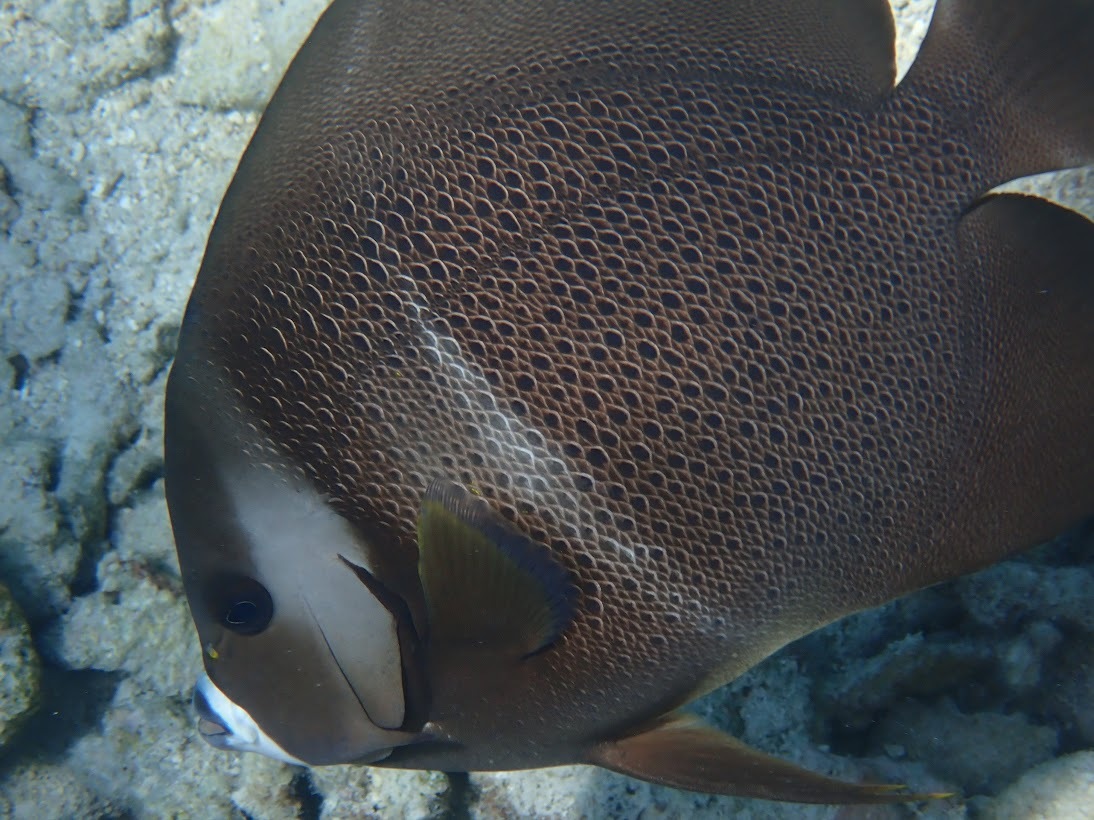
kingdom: Animalia
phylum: Chordata
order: Perciformes
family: Pomacanthidae
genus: Pomacanthus
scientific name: Pomacanthus arcuatus
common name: Gray angelfish
